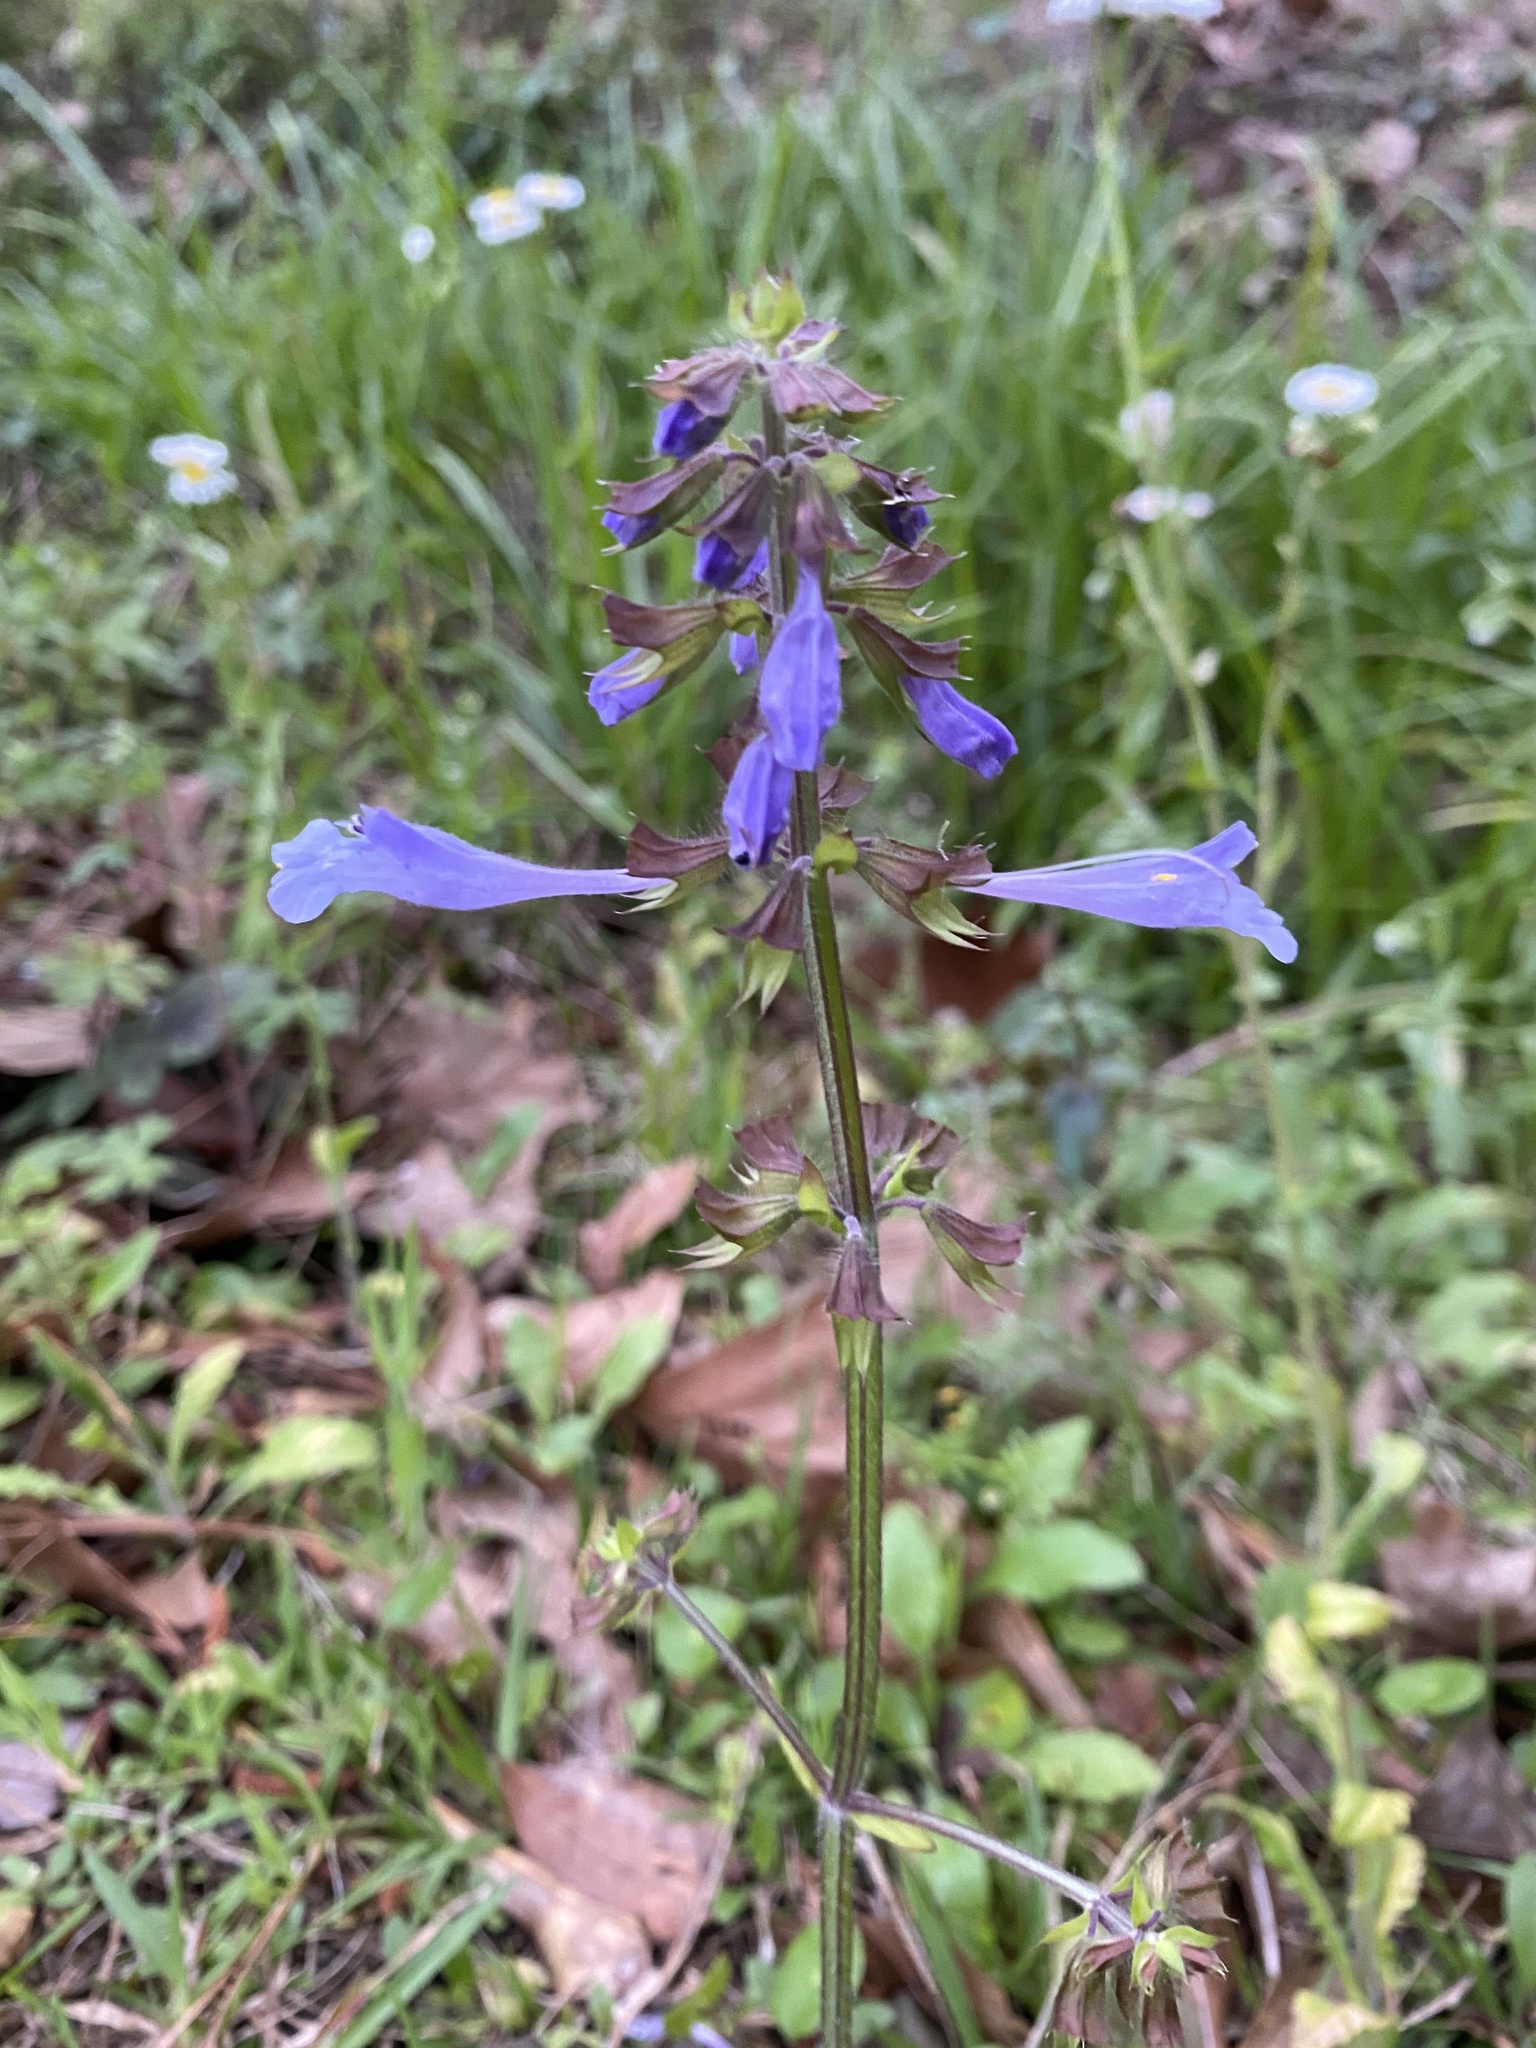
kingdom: Plantae
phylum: Tracheophyta
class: Magnoliopsida
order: Lamiales
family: Lamiaceae
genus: Salvia
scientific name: Salvia lyrata
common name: Cancerweed
